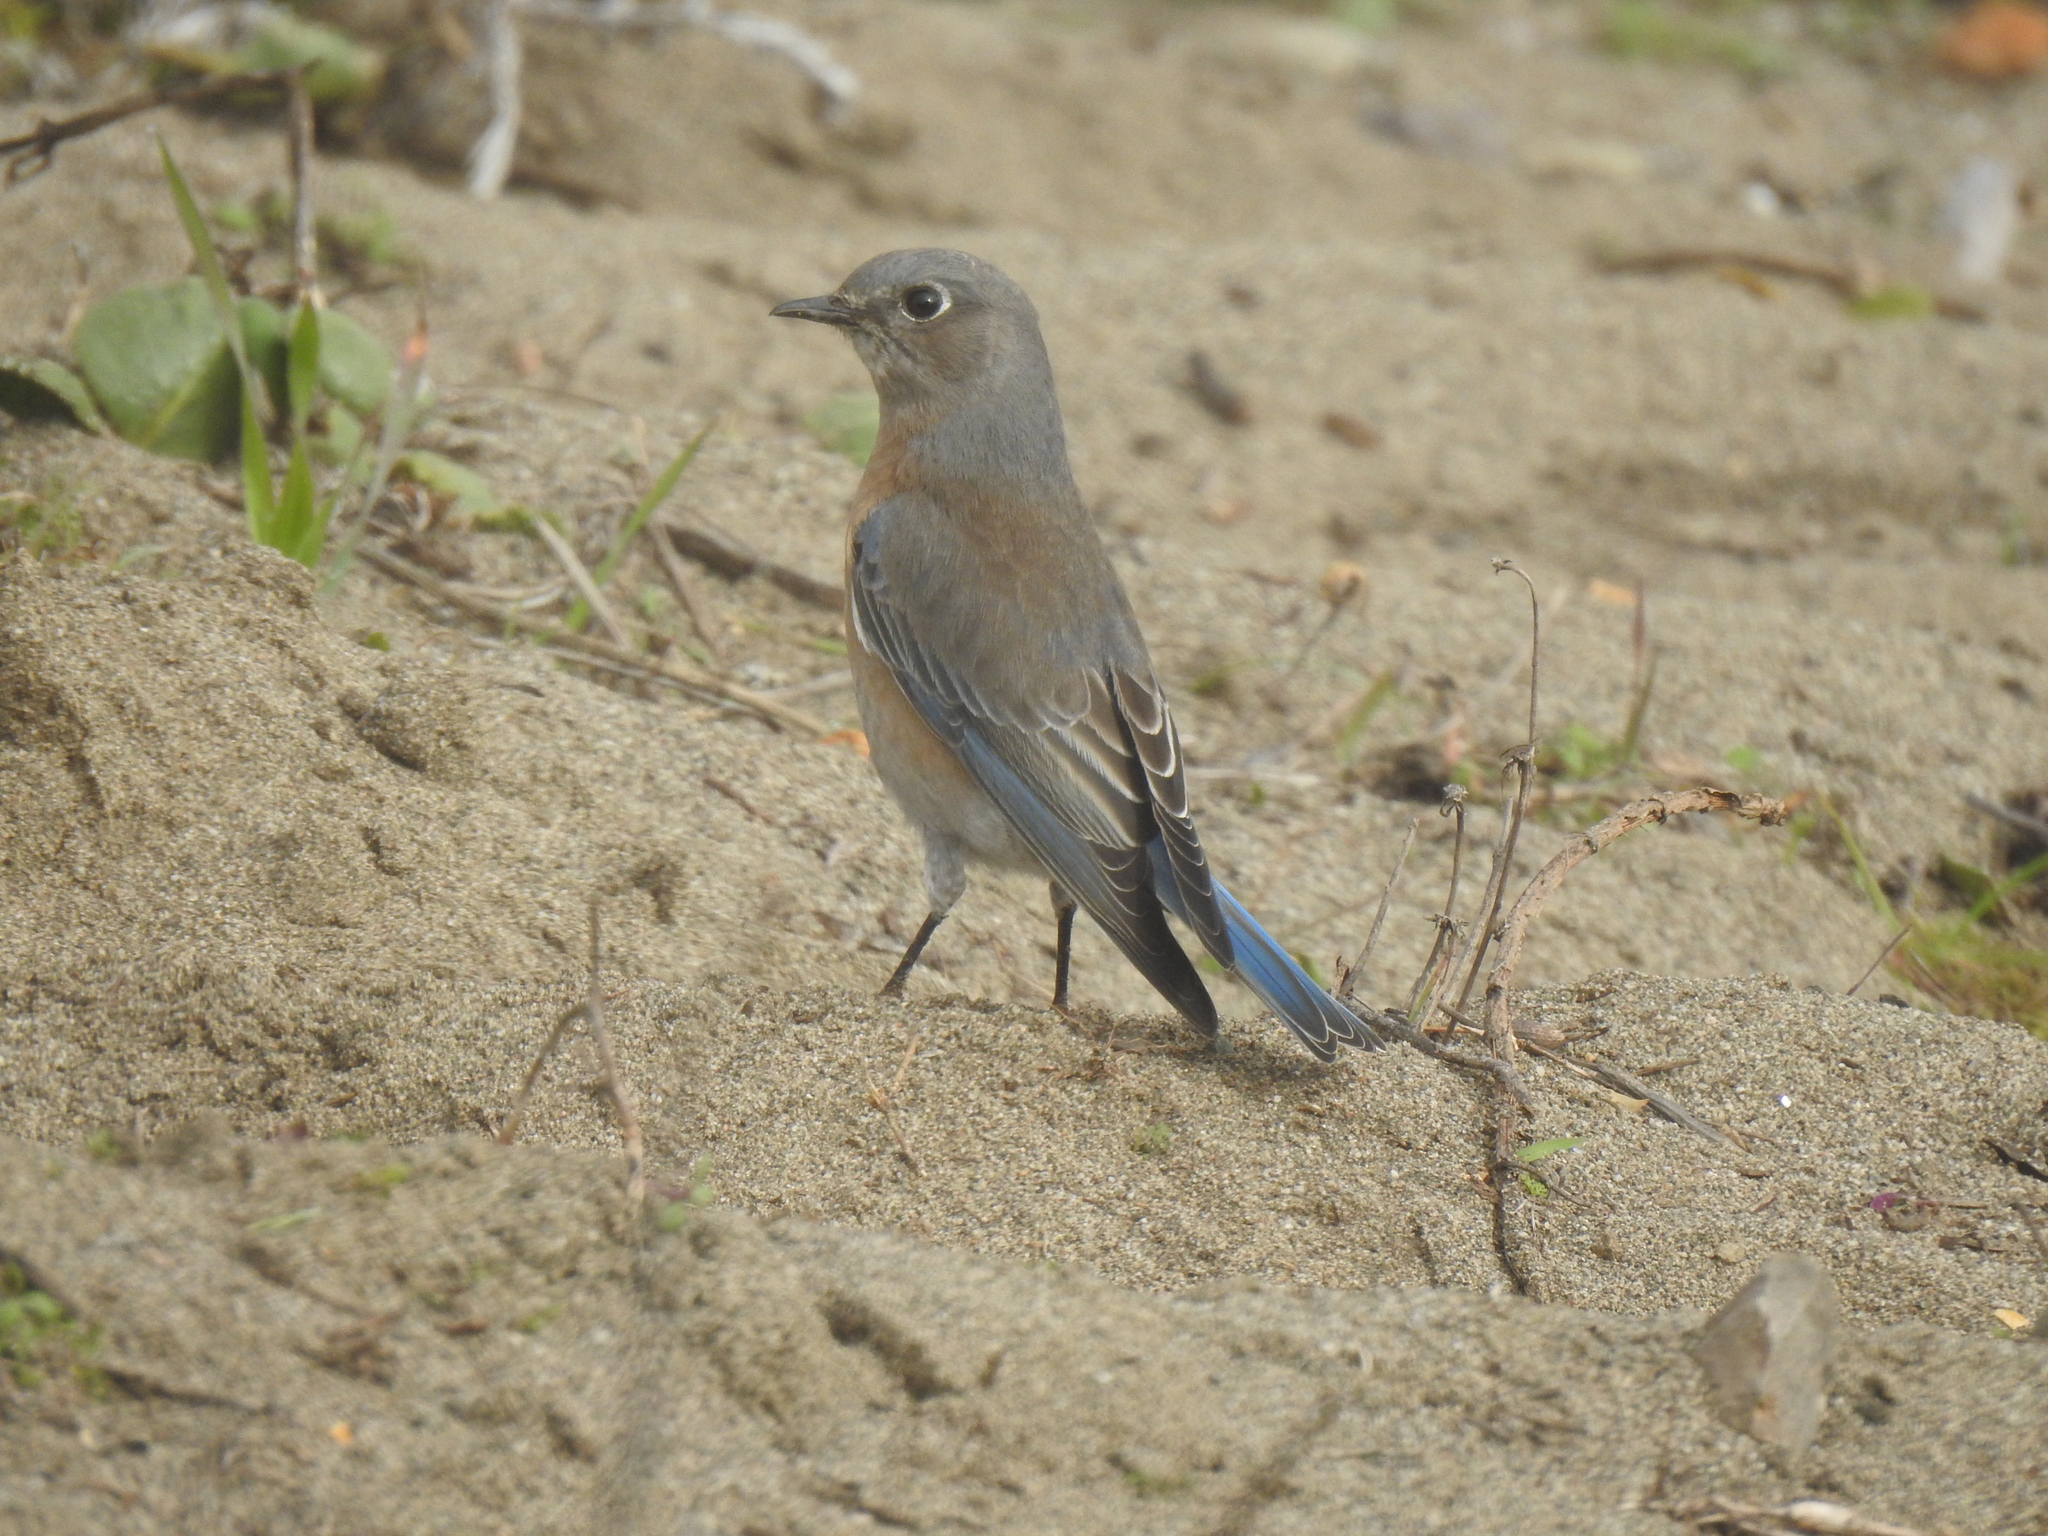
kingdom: Animalia
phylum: Chordata
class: Aves
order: Passeriformes
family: Turdidae
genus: Sialia
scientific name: Sialia mexicana
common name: Western bluebird
